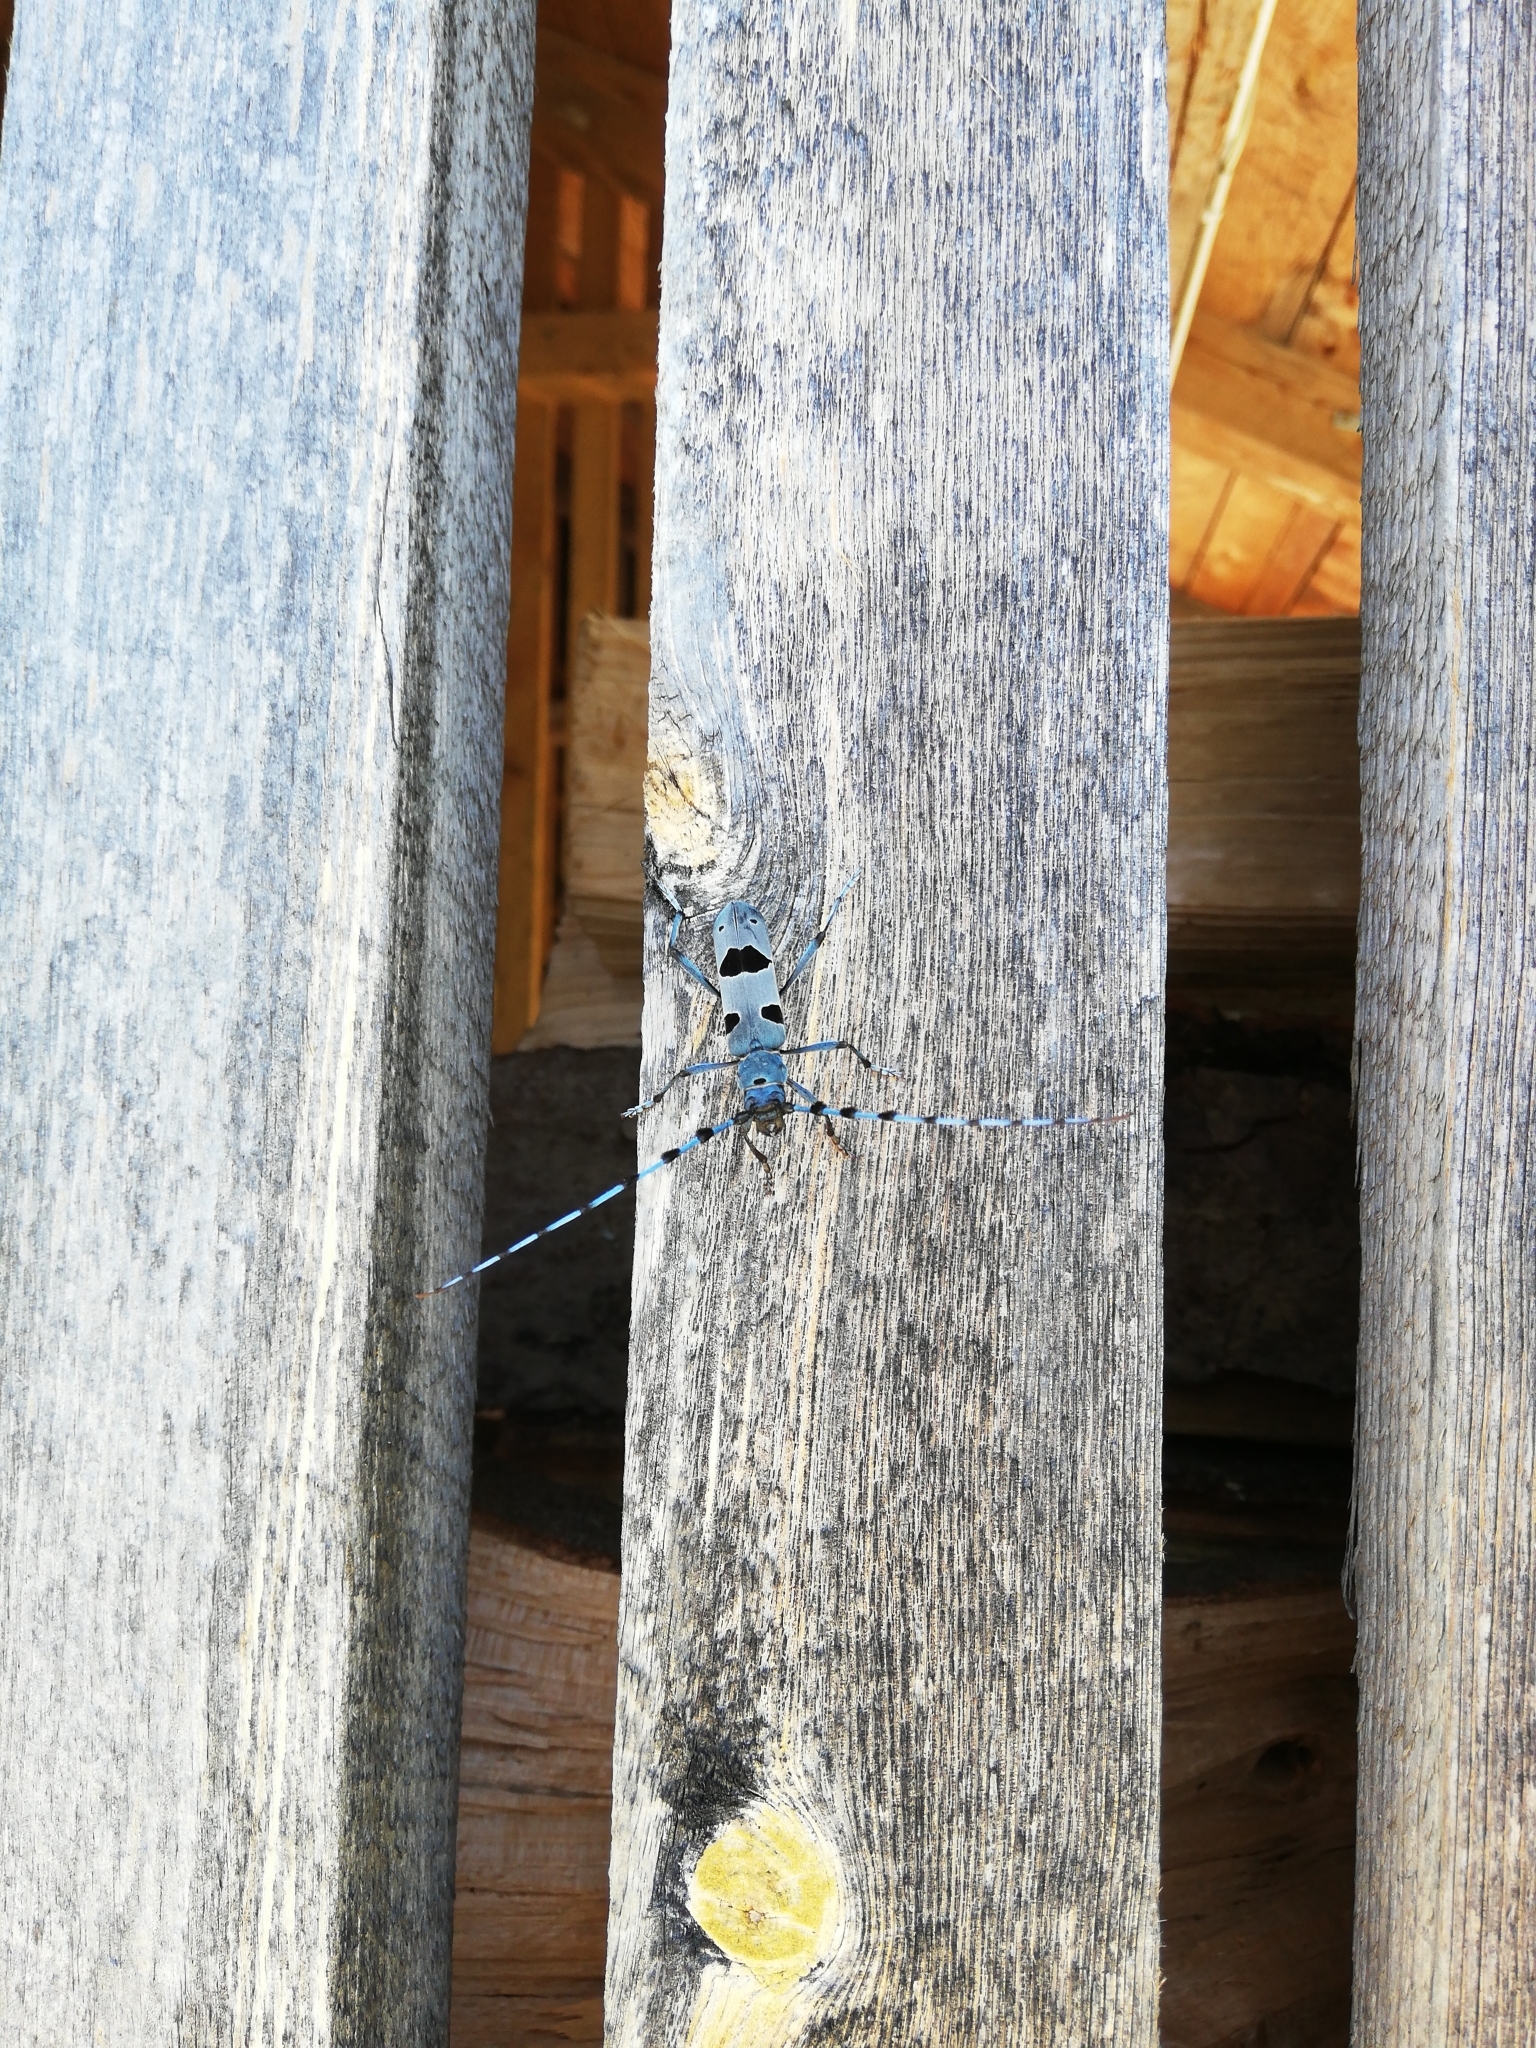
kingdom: Animalia
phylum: Arthropoda
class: Insecta
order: Coleoptera
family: Cerambycidae
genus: Rosalia
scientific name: Rosalia alpina
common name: Rosalia longicorn
